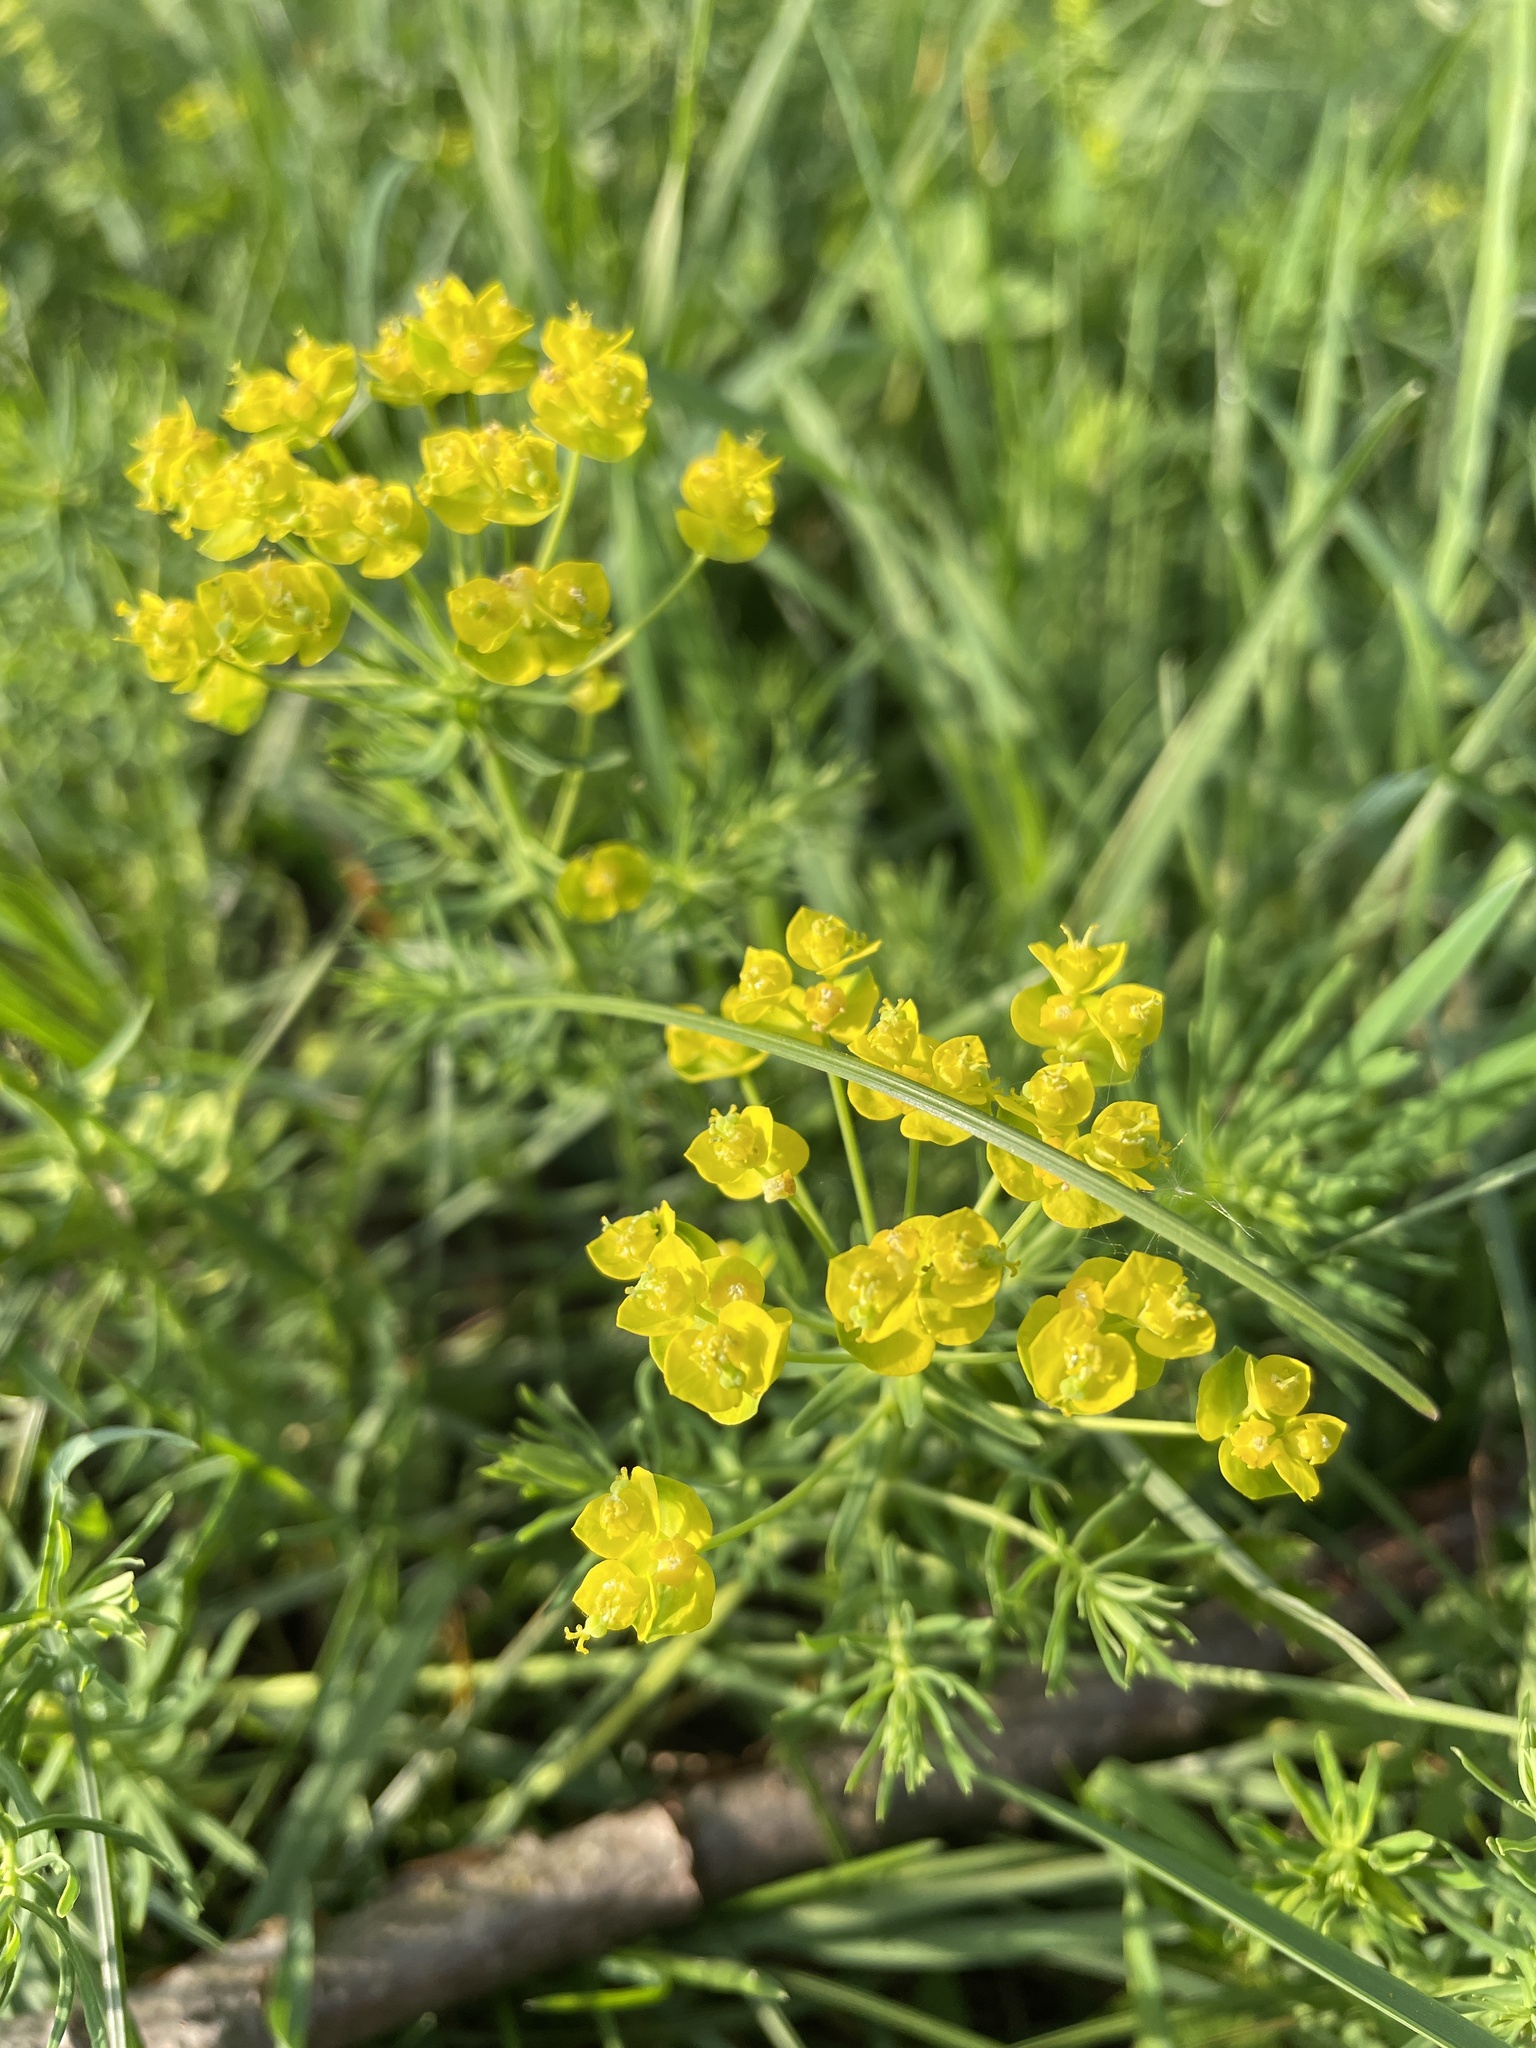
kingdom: Plantae
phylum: Tracheophyta
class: Magnoliopsida
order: Malpighiales
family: Euphorbiaceae
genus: Euphorbia
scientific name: Euphorbia cyparissias
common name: Cypress spurge
